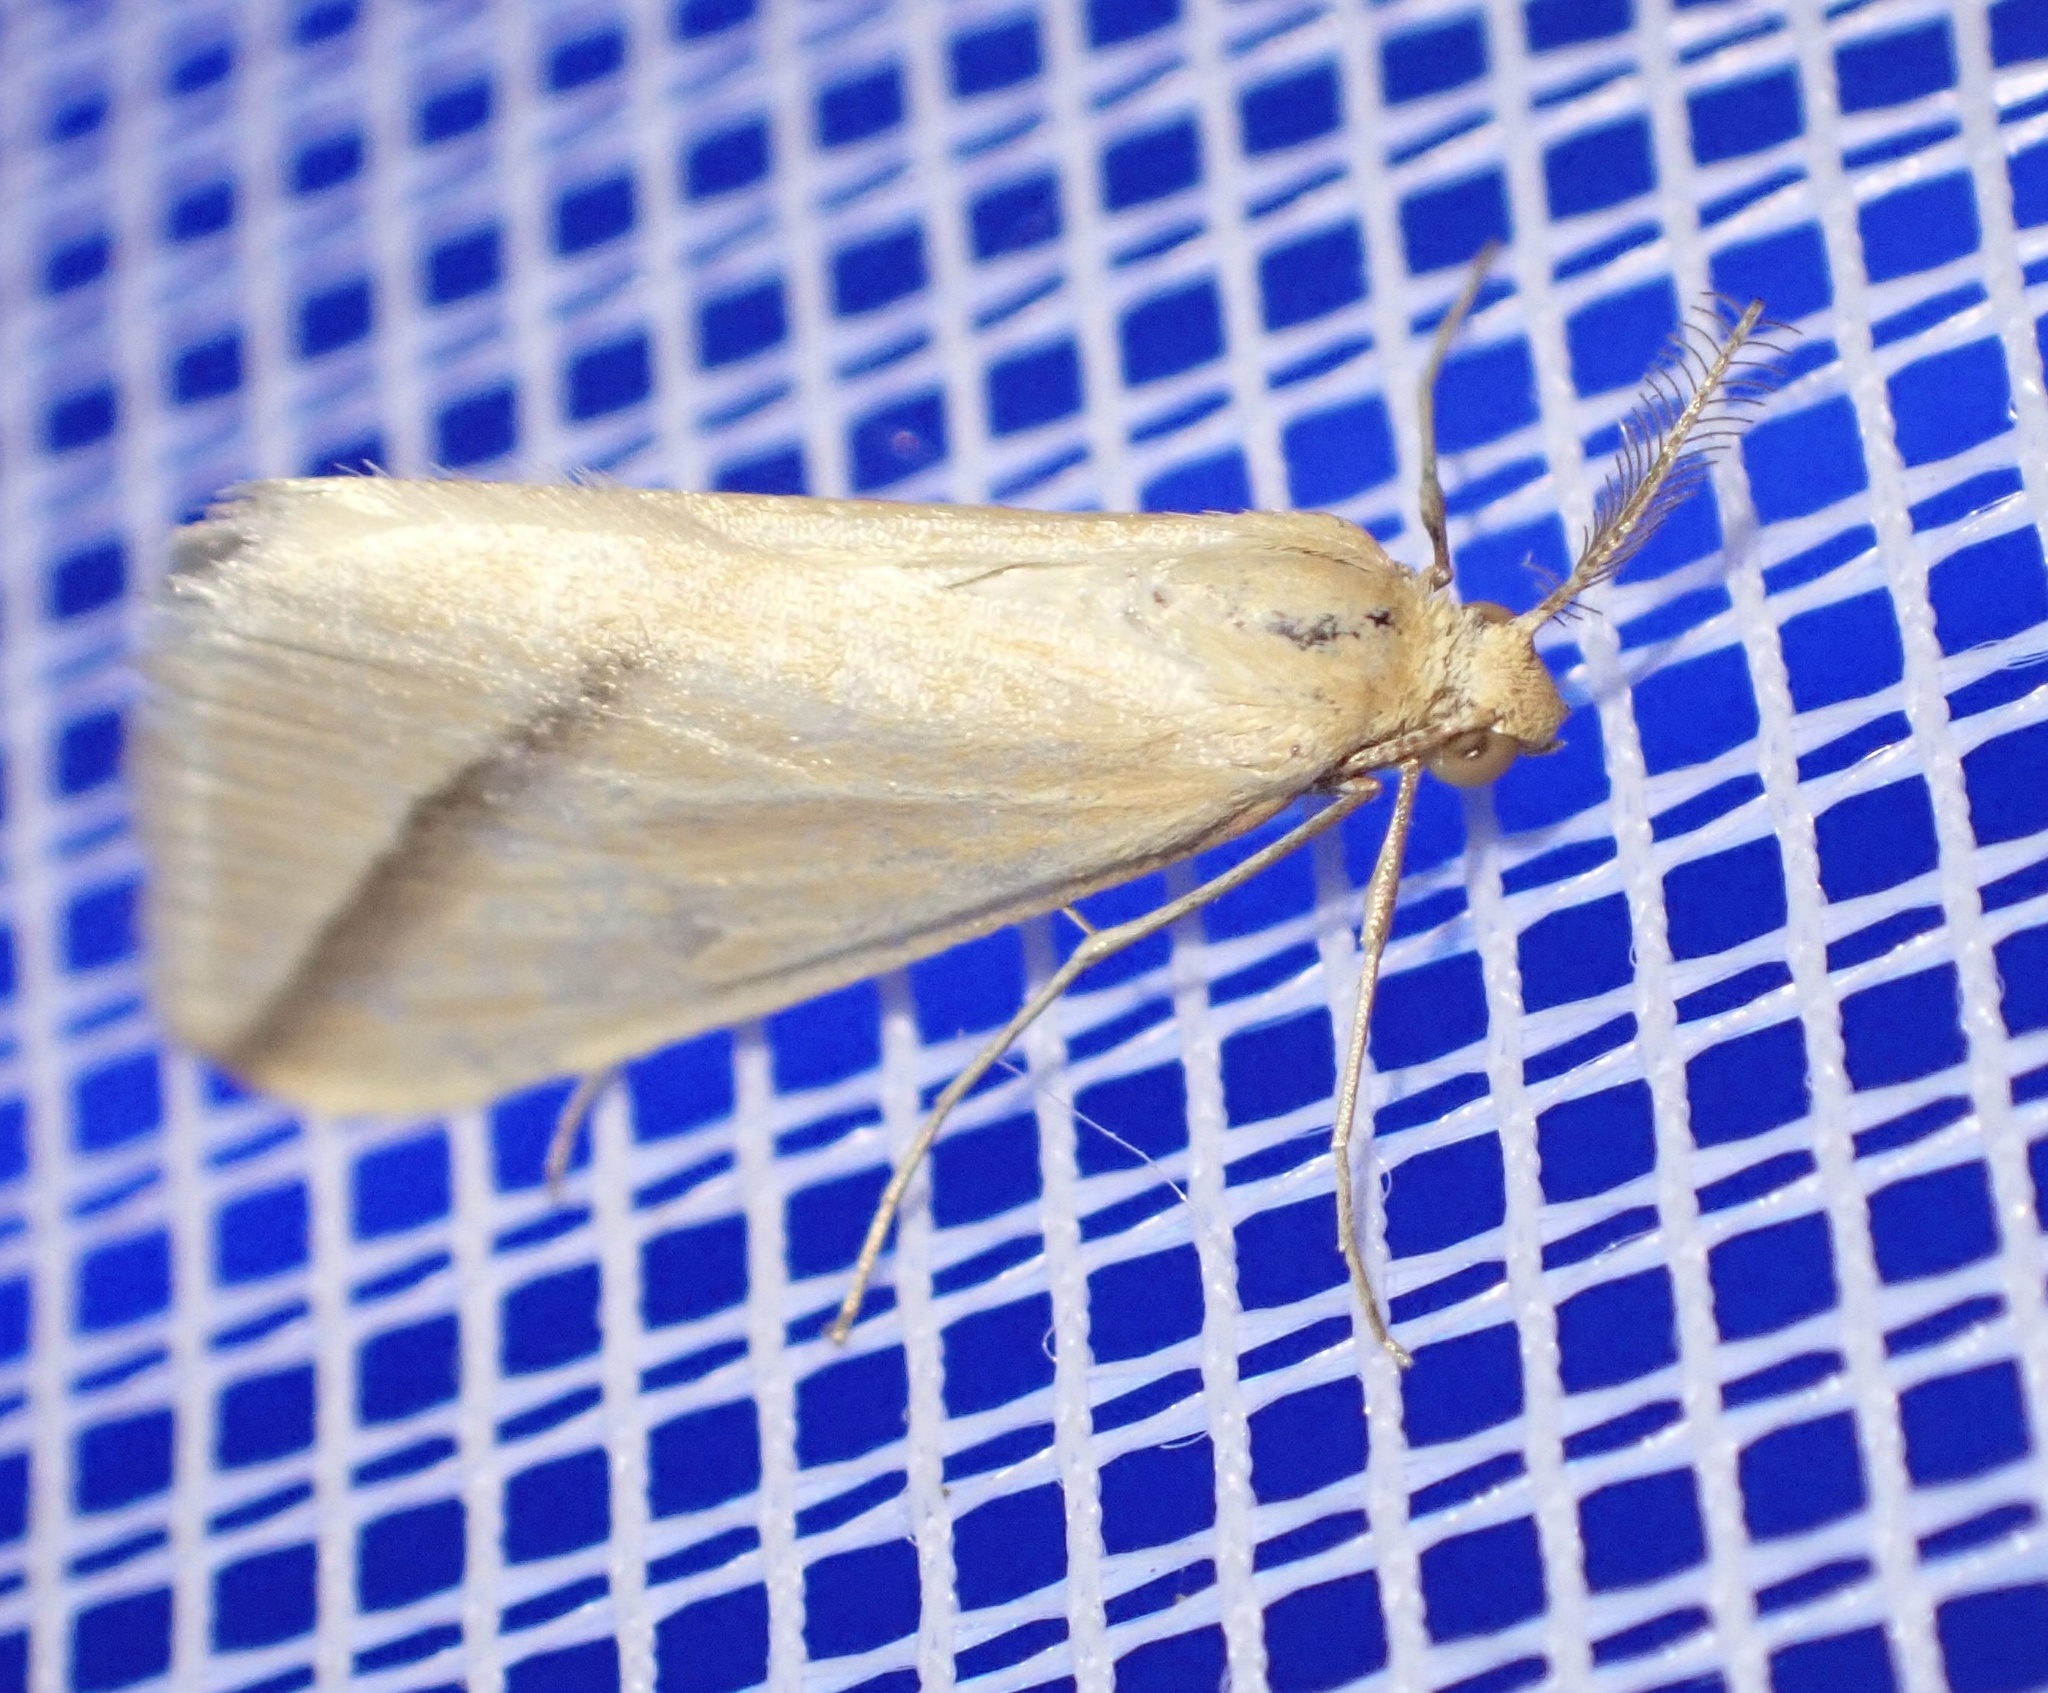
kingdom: Animalia
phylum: Arthropoda
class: Insecta
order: Lepidoptera
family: Geometridae
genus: Rhodometra
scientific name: Rhodometra sacraria
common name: Vestal
